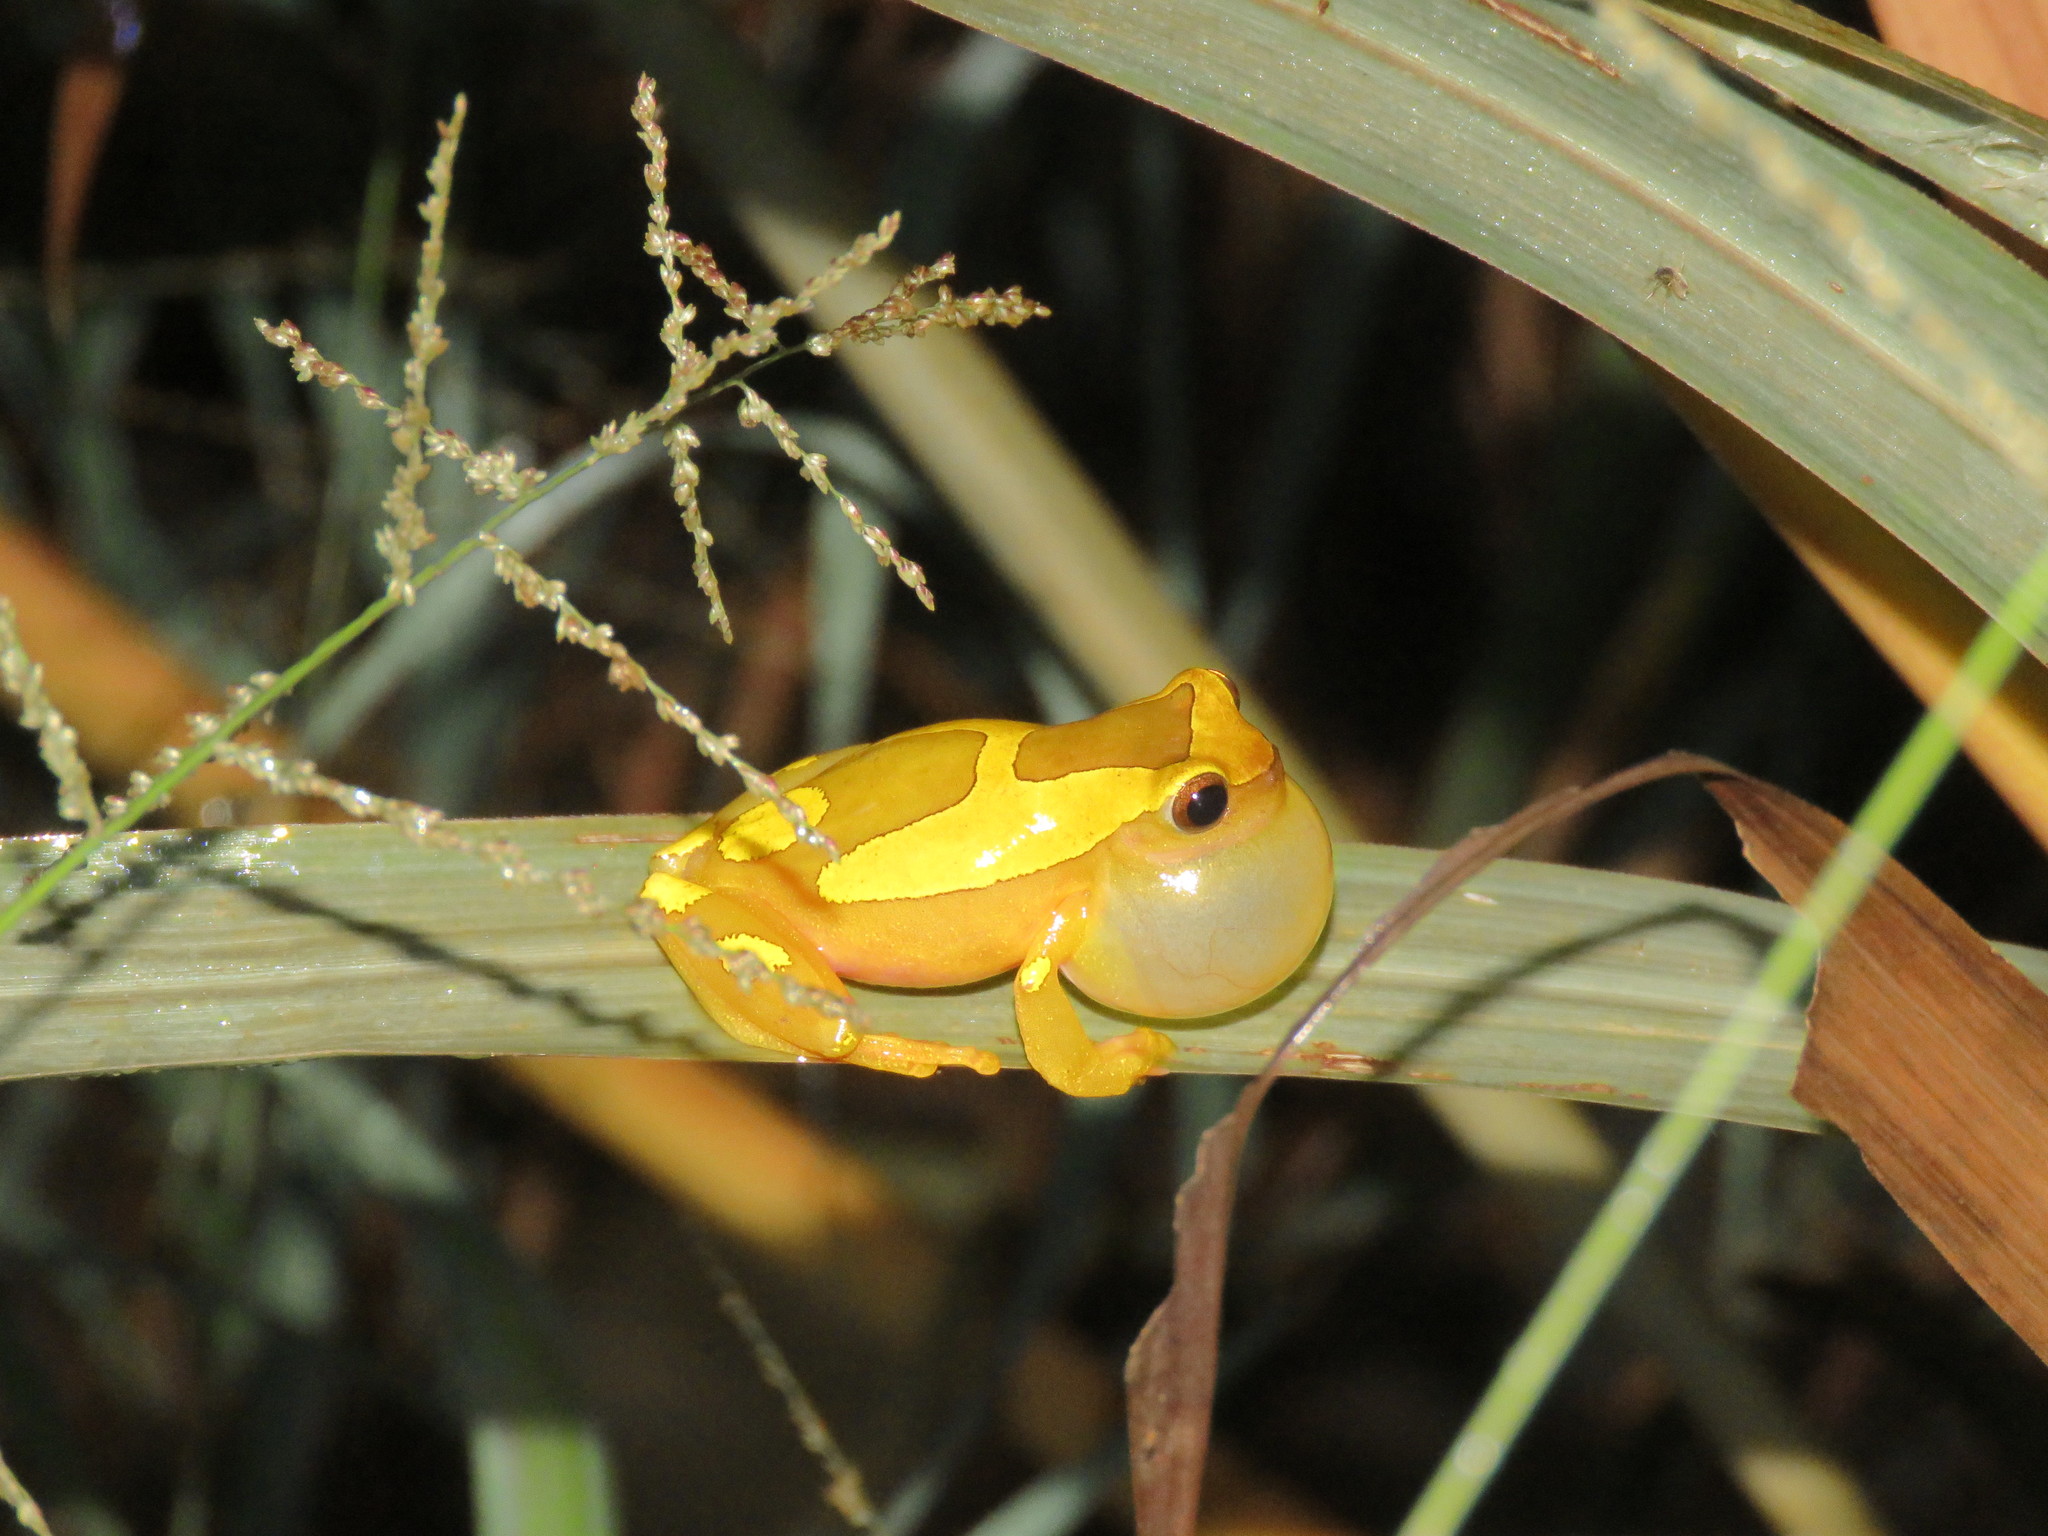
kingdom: Animalia
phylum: Chordata
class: Amphibia
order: Anura
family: Hylidae
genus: Dendropsophus
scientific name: Dendropsophus arndti
